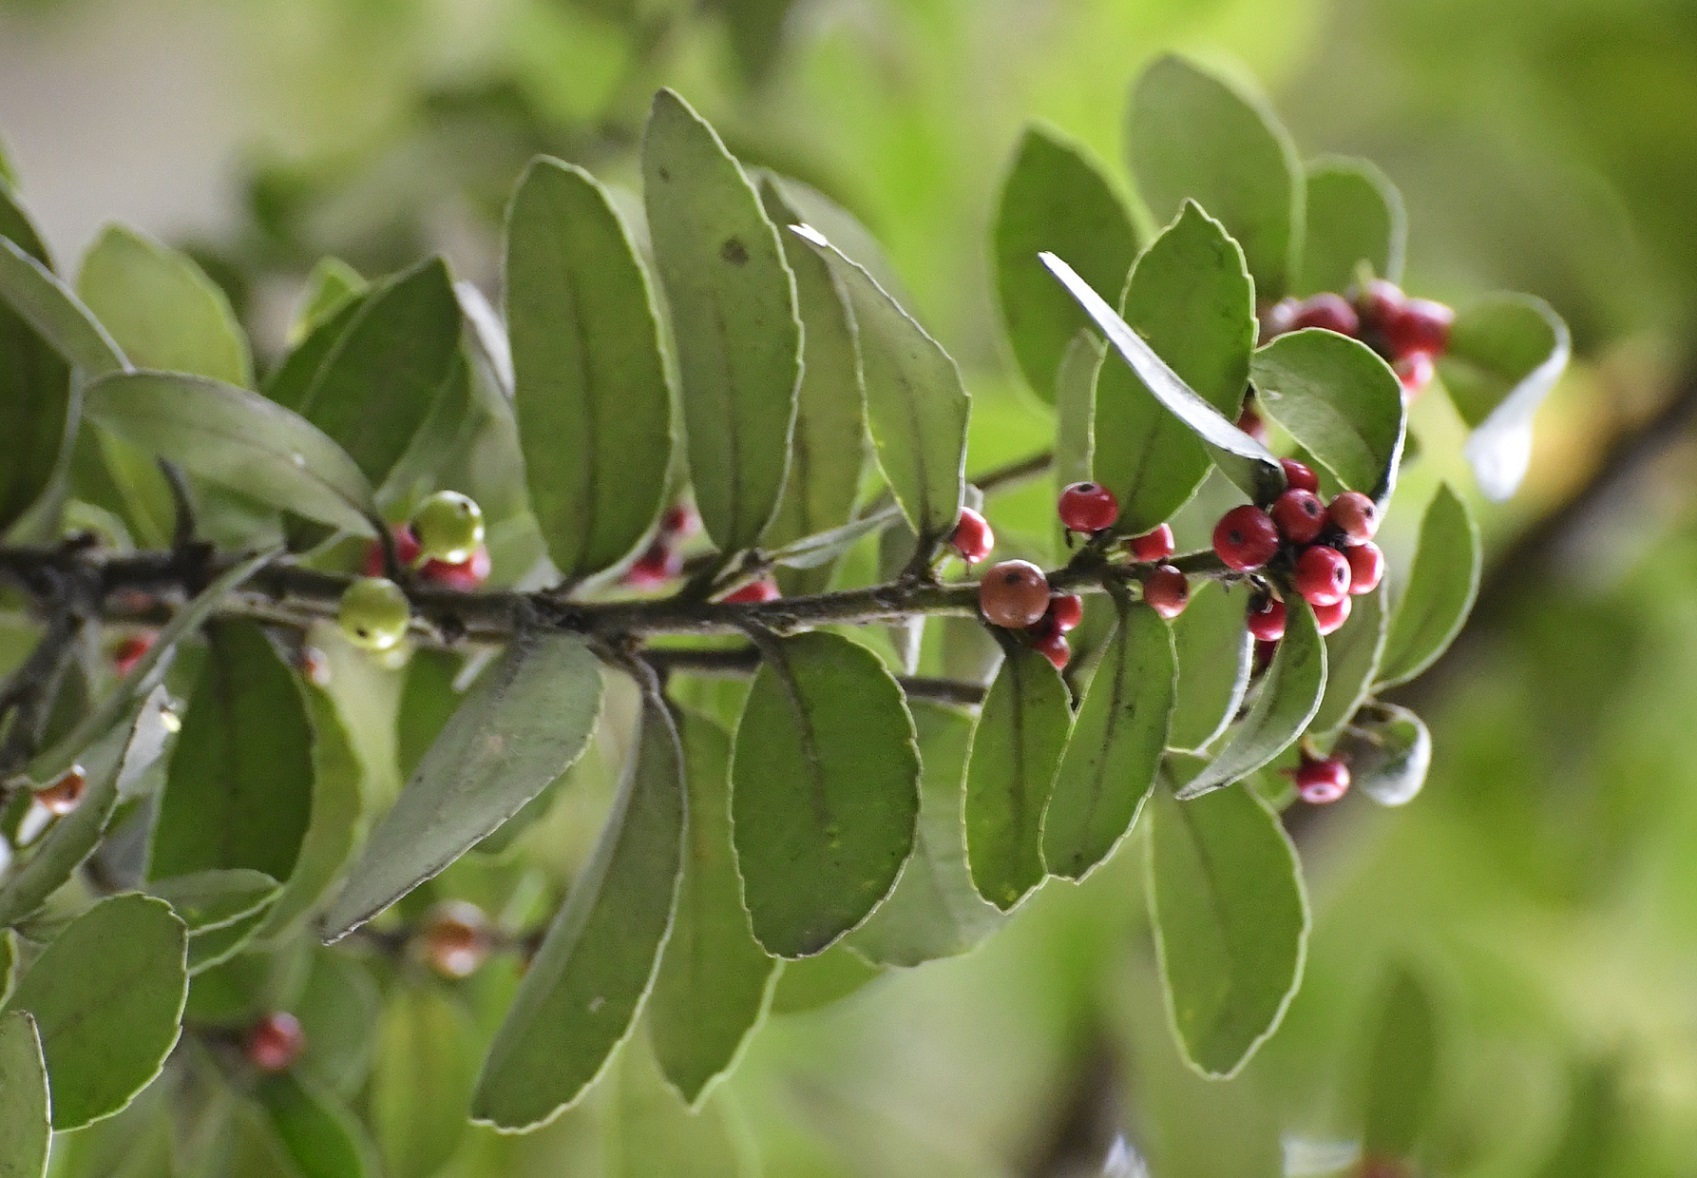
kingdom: Plantae
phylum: Tracheophyta
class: Magnoliopsida
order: Aquifoliales
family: Aquifoliaceae
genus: Ilex
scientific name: Ilex vomitoria
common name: Yaupon holly
